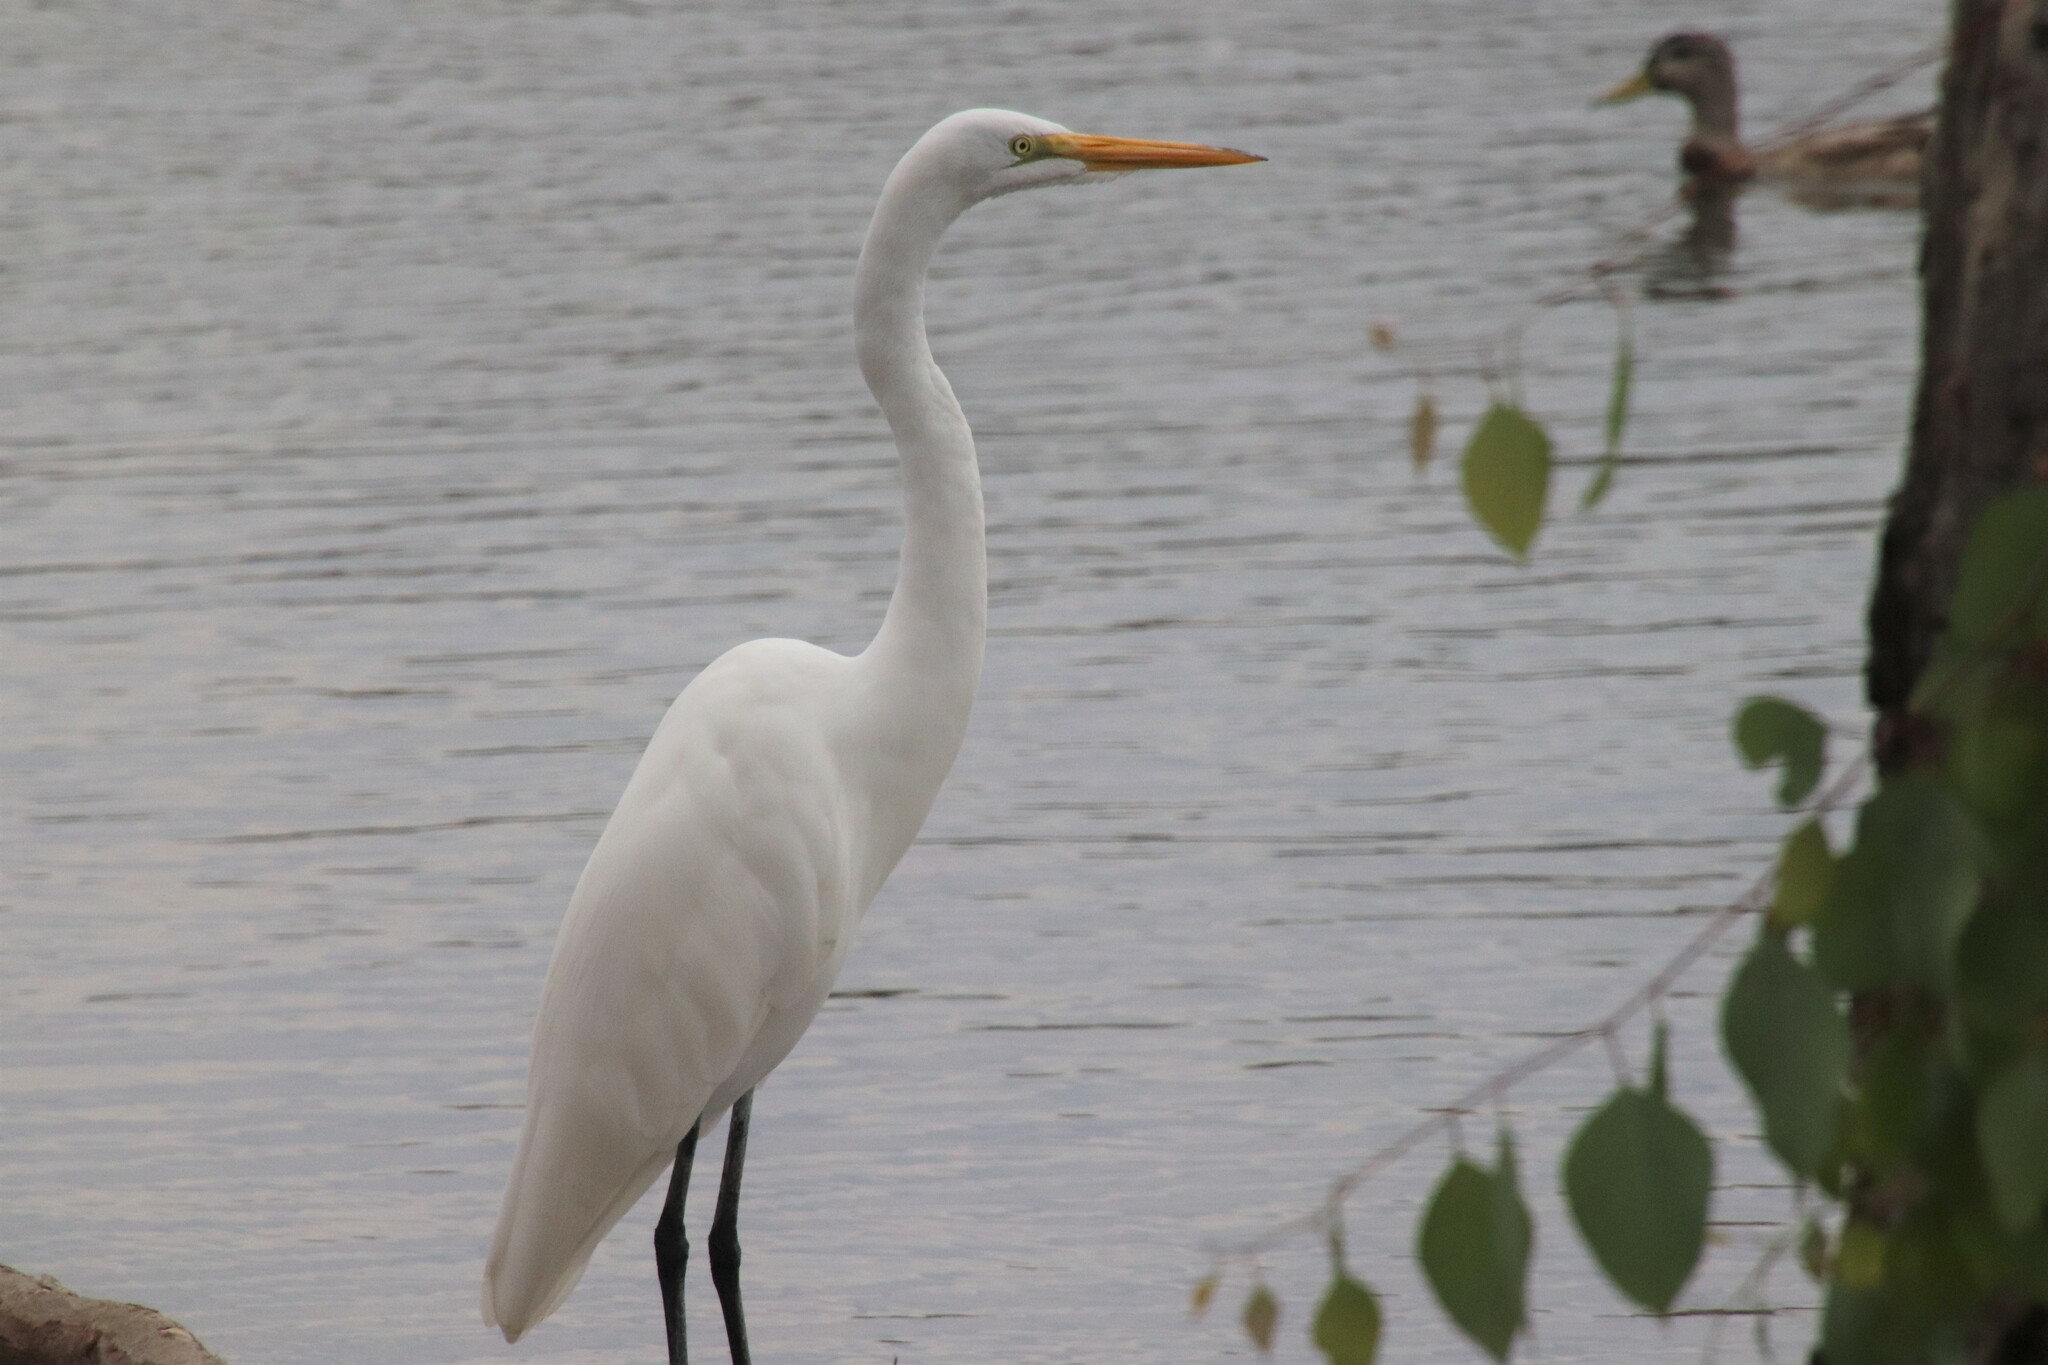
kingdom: Animalia
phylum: Chordata
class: Aves
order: Pelecaniformes
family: Ardeidae
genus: Ardea
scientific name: Ardea alba
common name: Great egret
